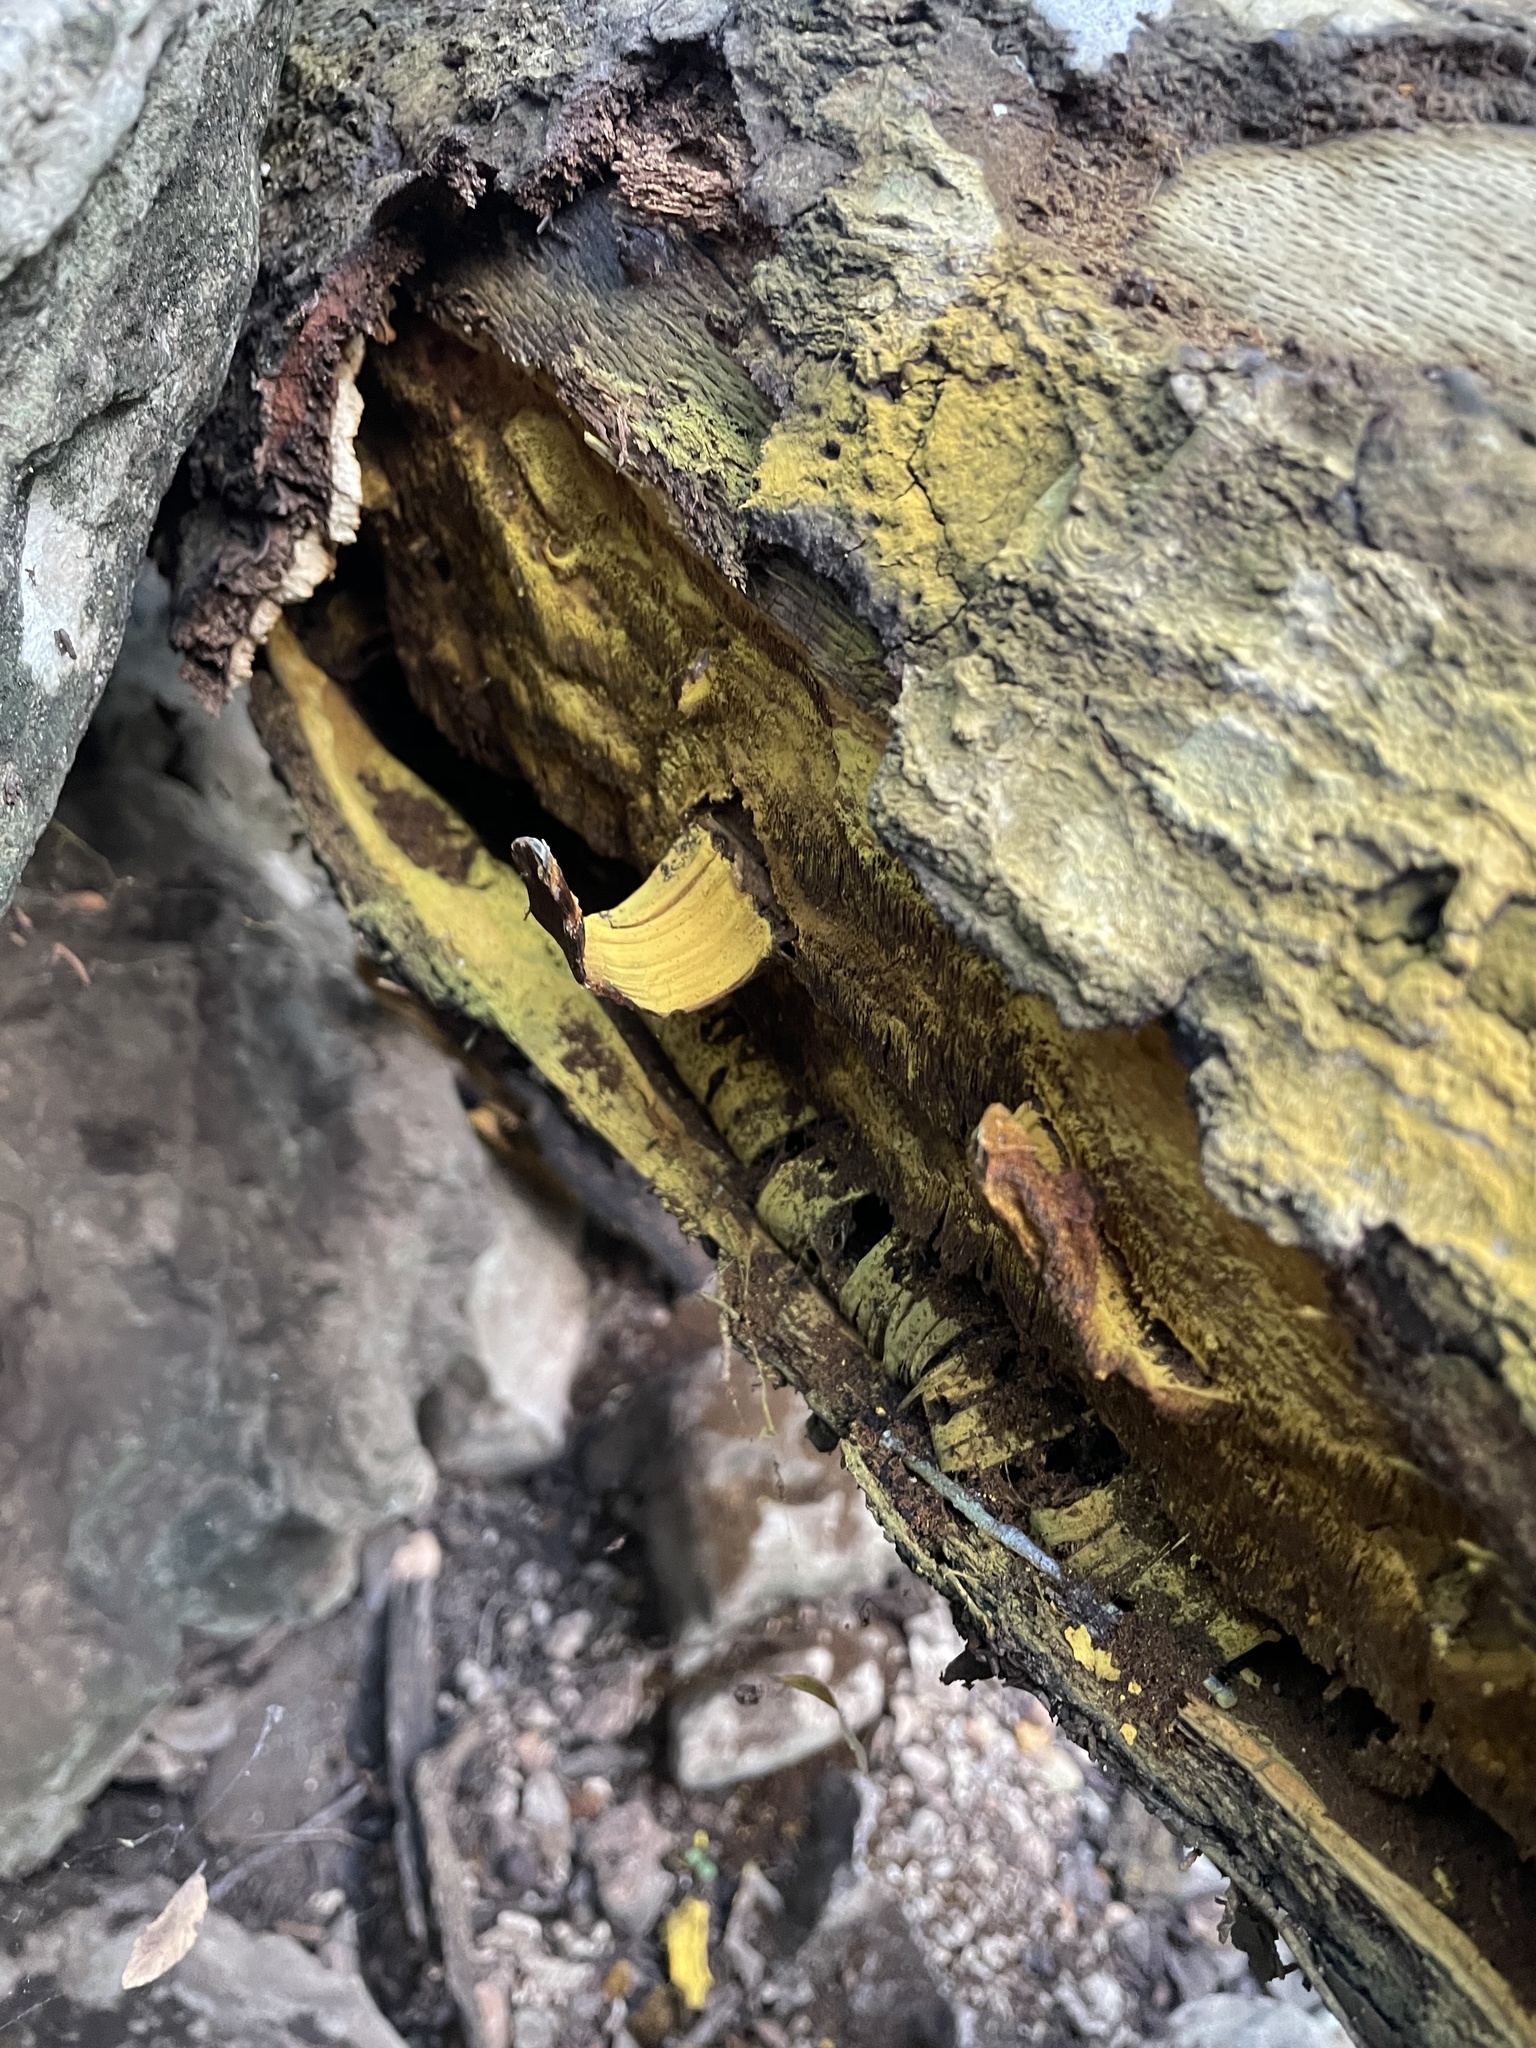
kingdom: Fungi
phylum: Basidiomycota
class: Agaricomycetes
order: Hymenochaetales
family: Hymenochaetaceae
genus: Xanthoporia
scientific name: Xanthoporia andersonii
